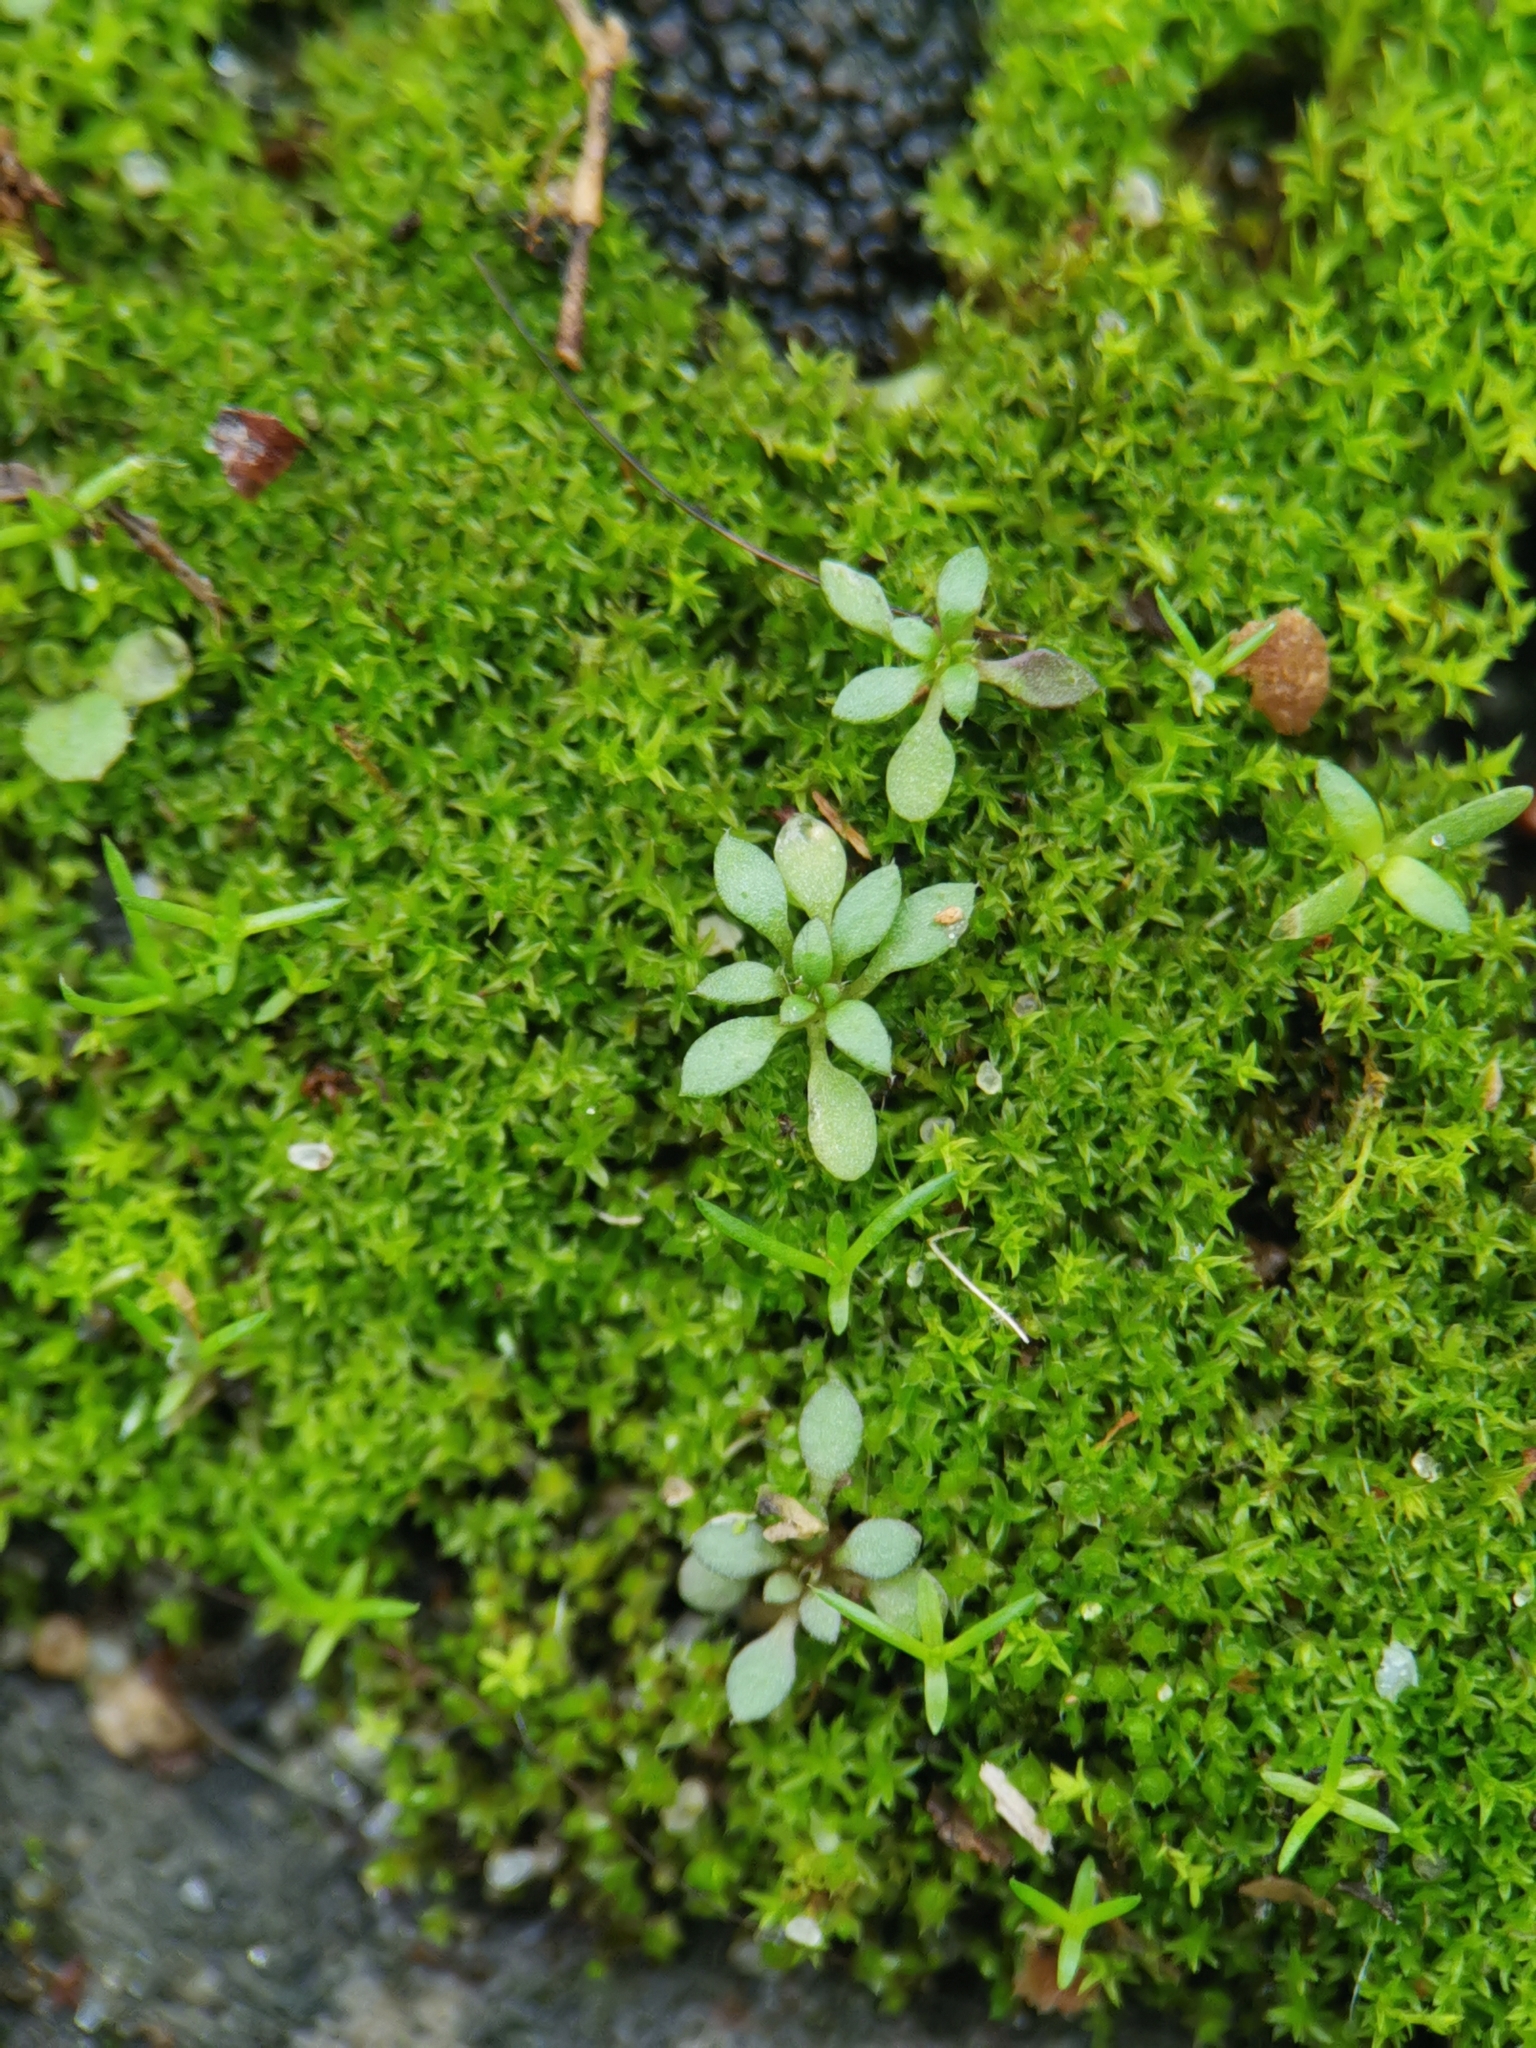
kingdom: Plantae
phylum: Tracheophyta
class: Magnoliopsida
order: Brassicales
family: Brassicaceae
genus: Draba
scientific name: Draba verna
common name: Spring draba
